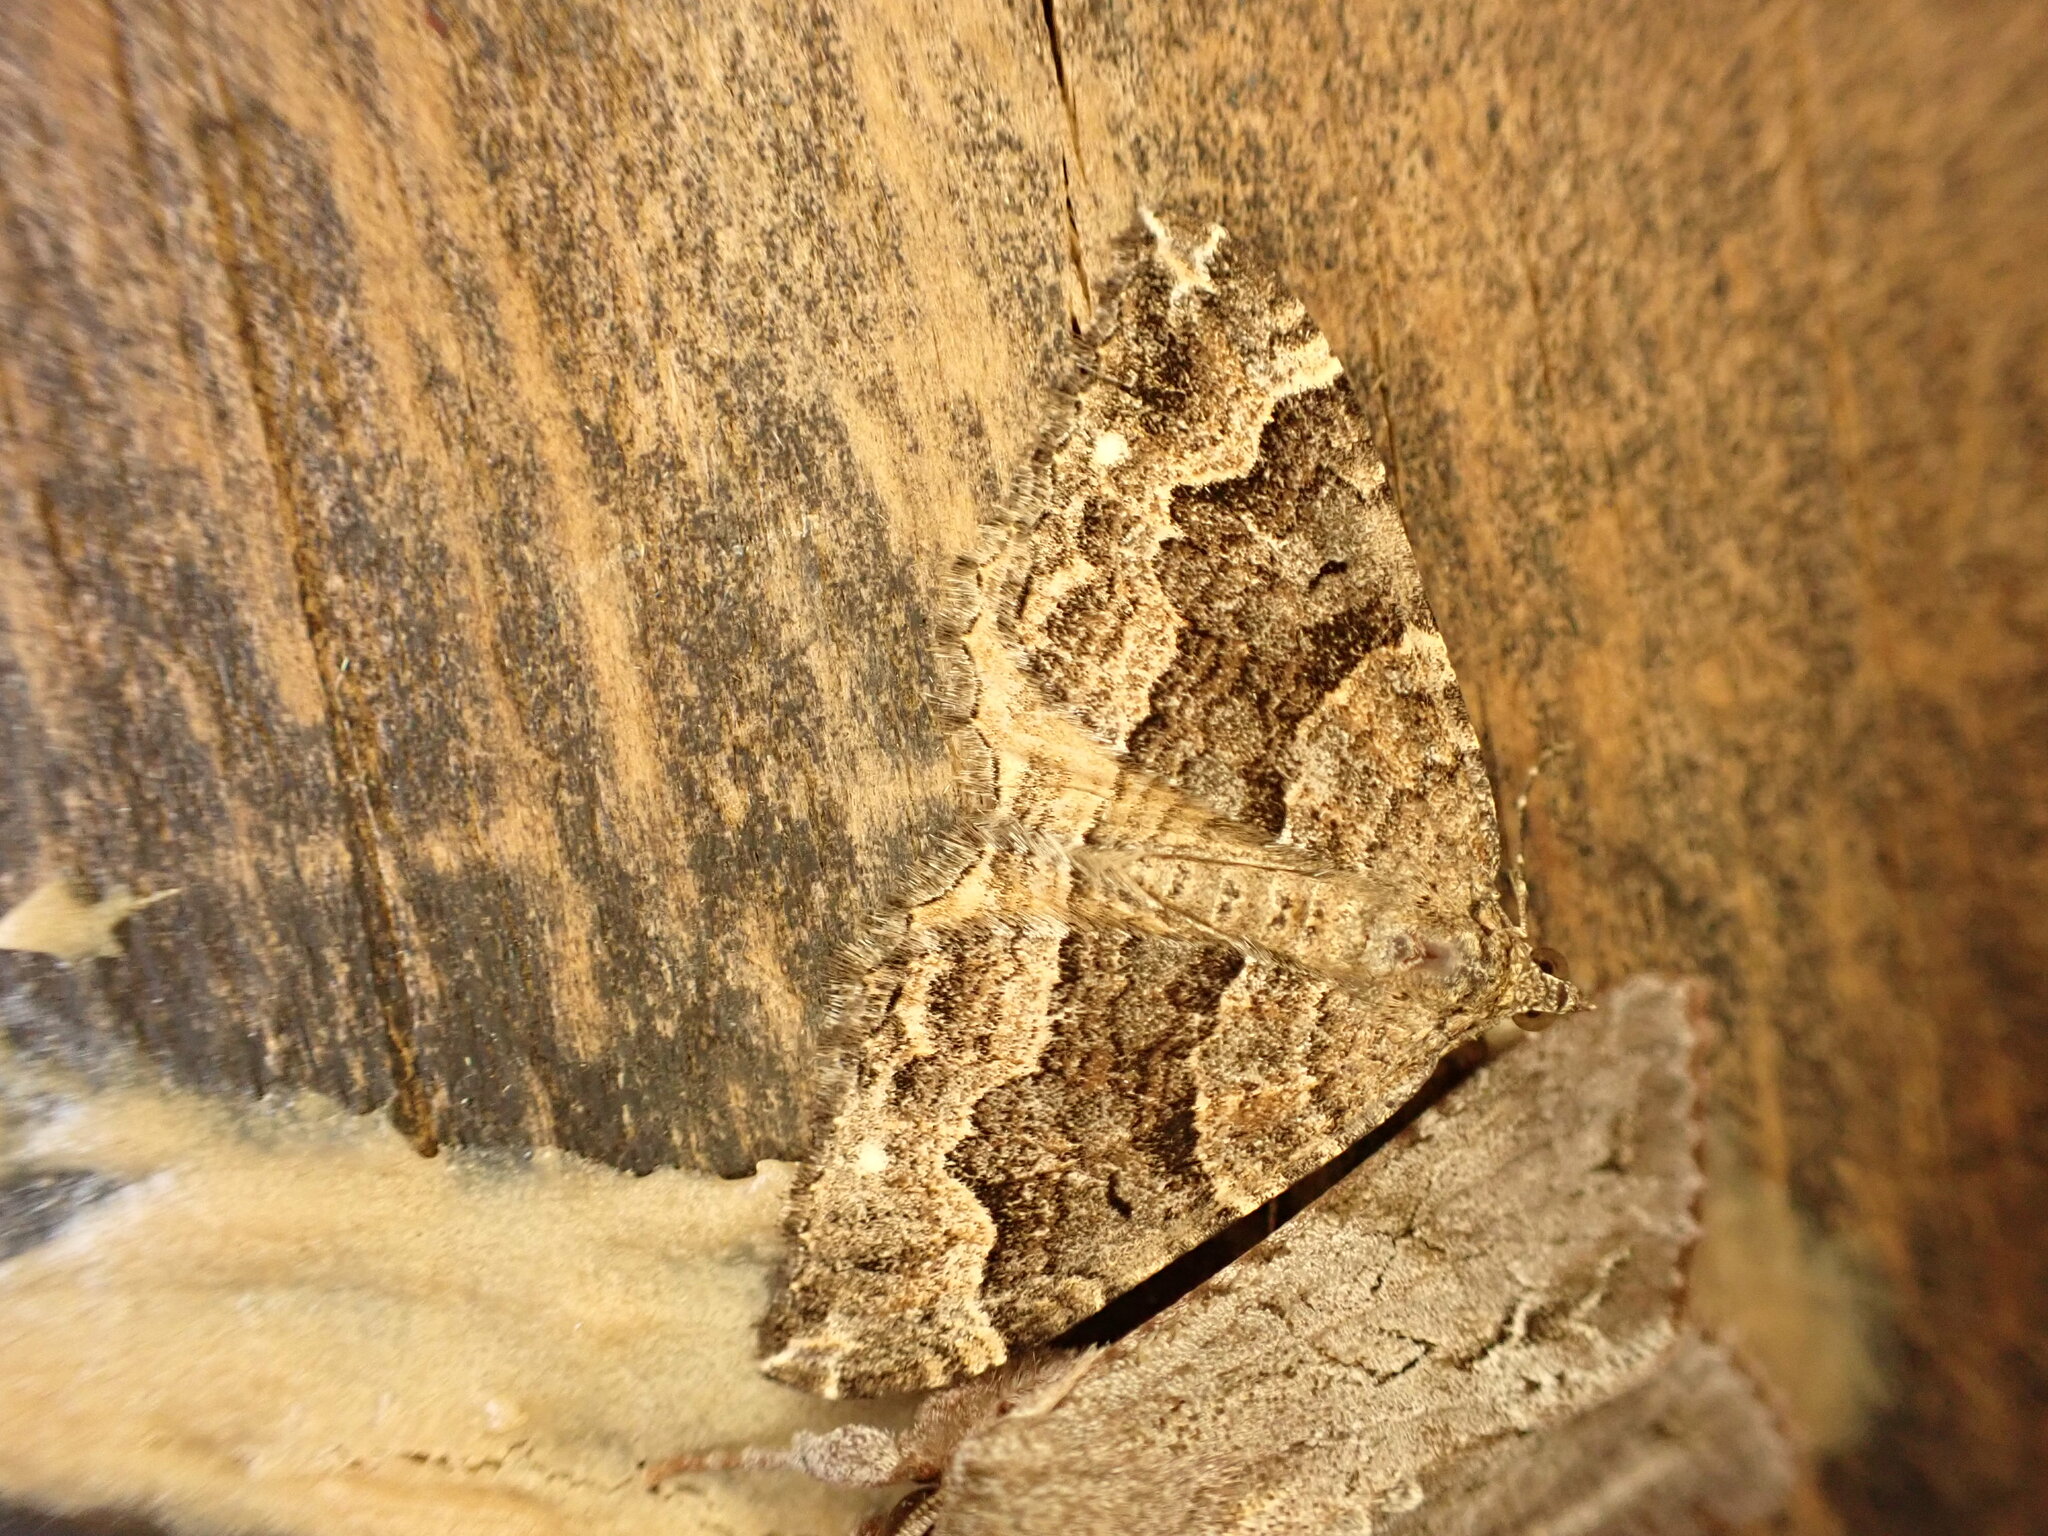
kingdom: Animalia
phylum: Arthropoda
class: Insecta
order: Lepidoptera
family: Geometridae
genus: Hydriomena
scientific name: Hydriomena deltoidata
